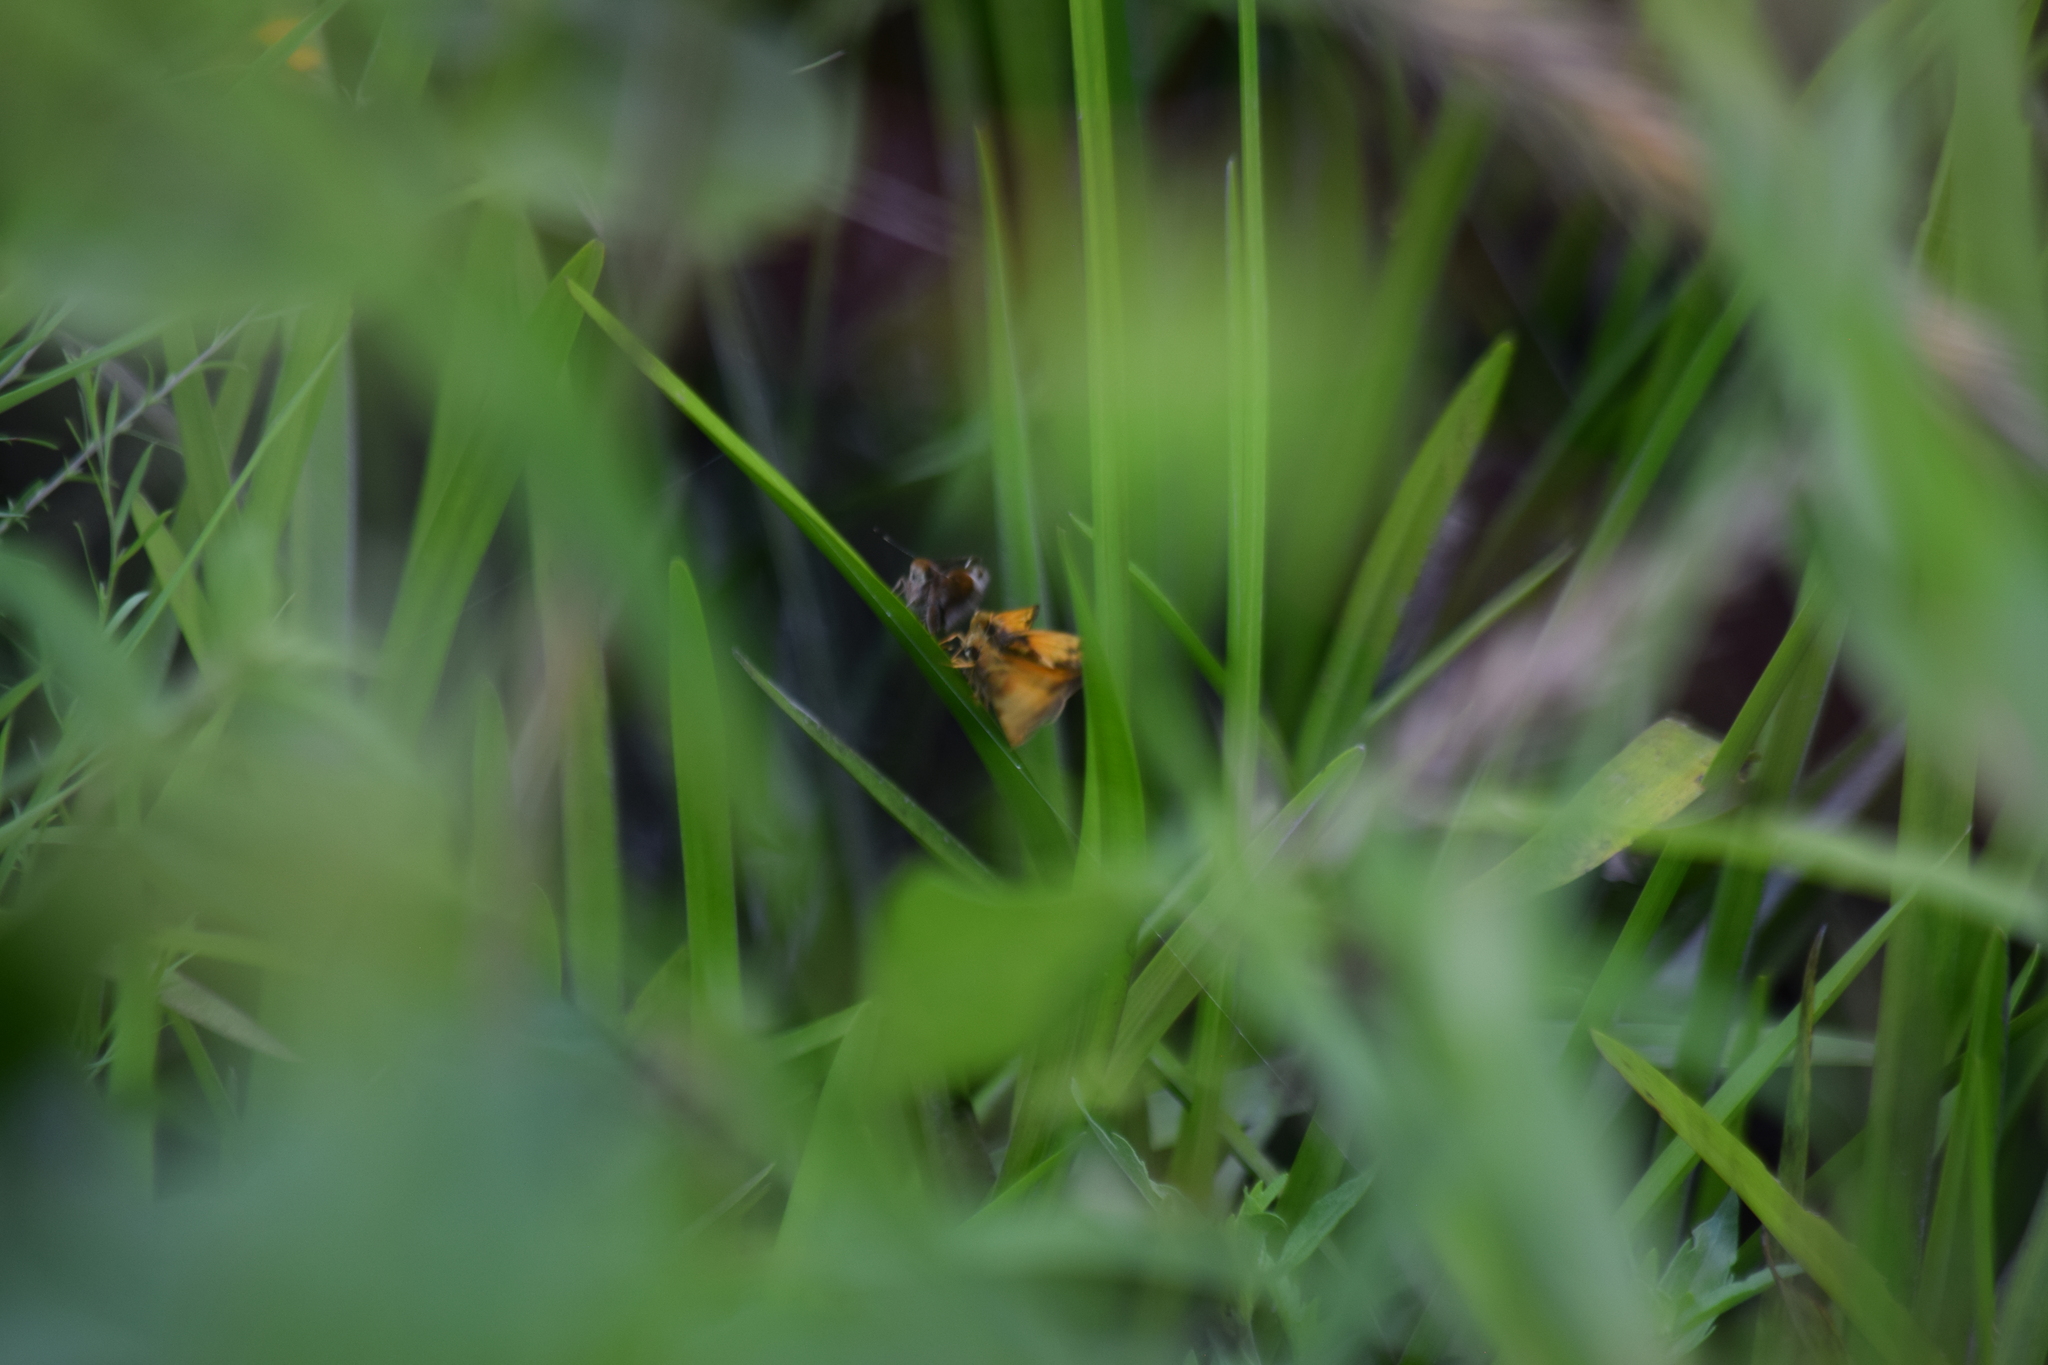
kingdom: Animalia
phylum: Arthropoda
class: Insecta
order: Lepidoptera
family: Hesperiidae
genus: Lon
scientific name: Lon zabulon
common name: Zabulon skipper
